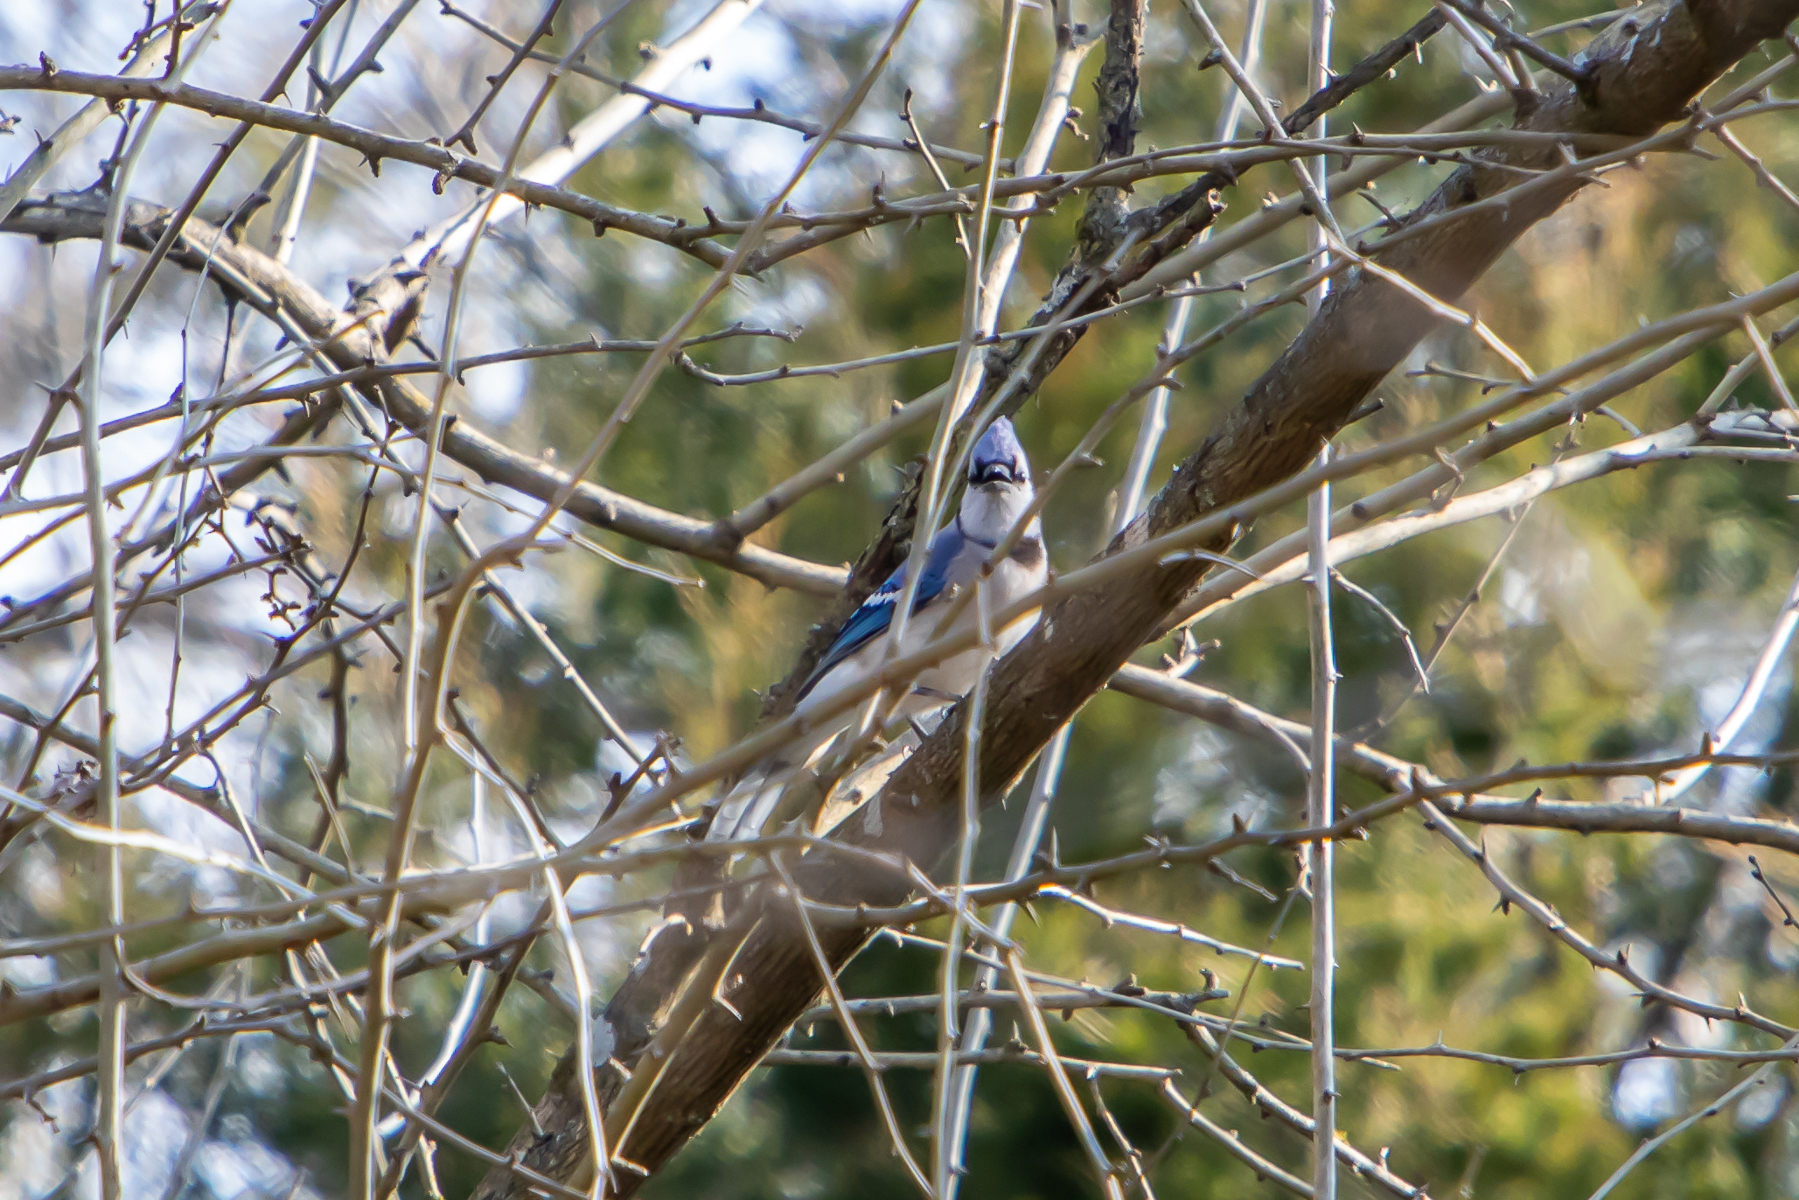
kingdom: Animalia
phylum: Chordata
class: Aves
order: Passeriformes
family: Corvidae
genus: Cyanocitta
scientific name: Cyanocitta cristata
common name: Blue jay
